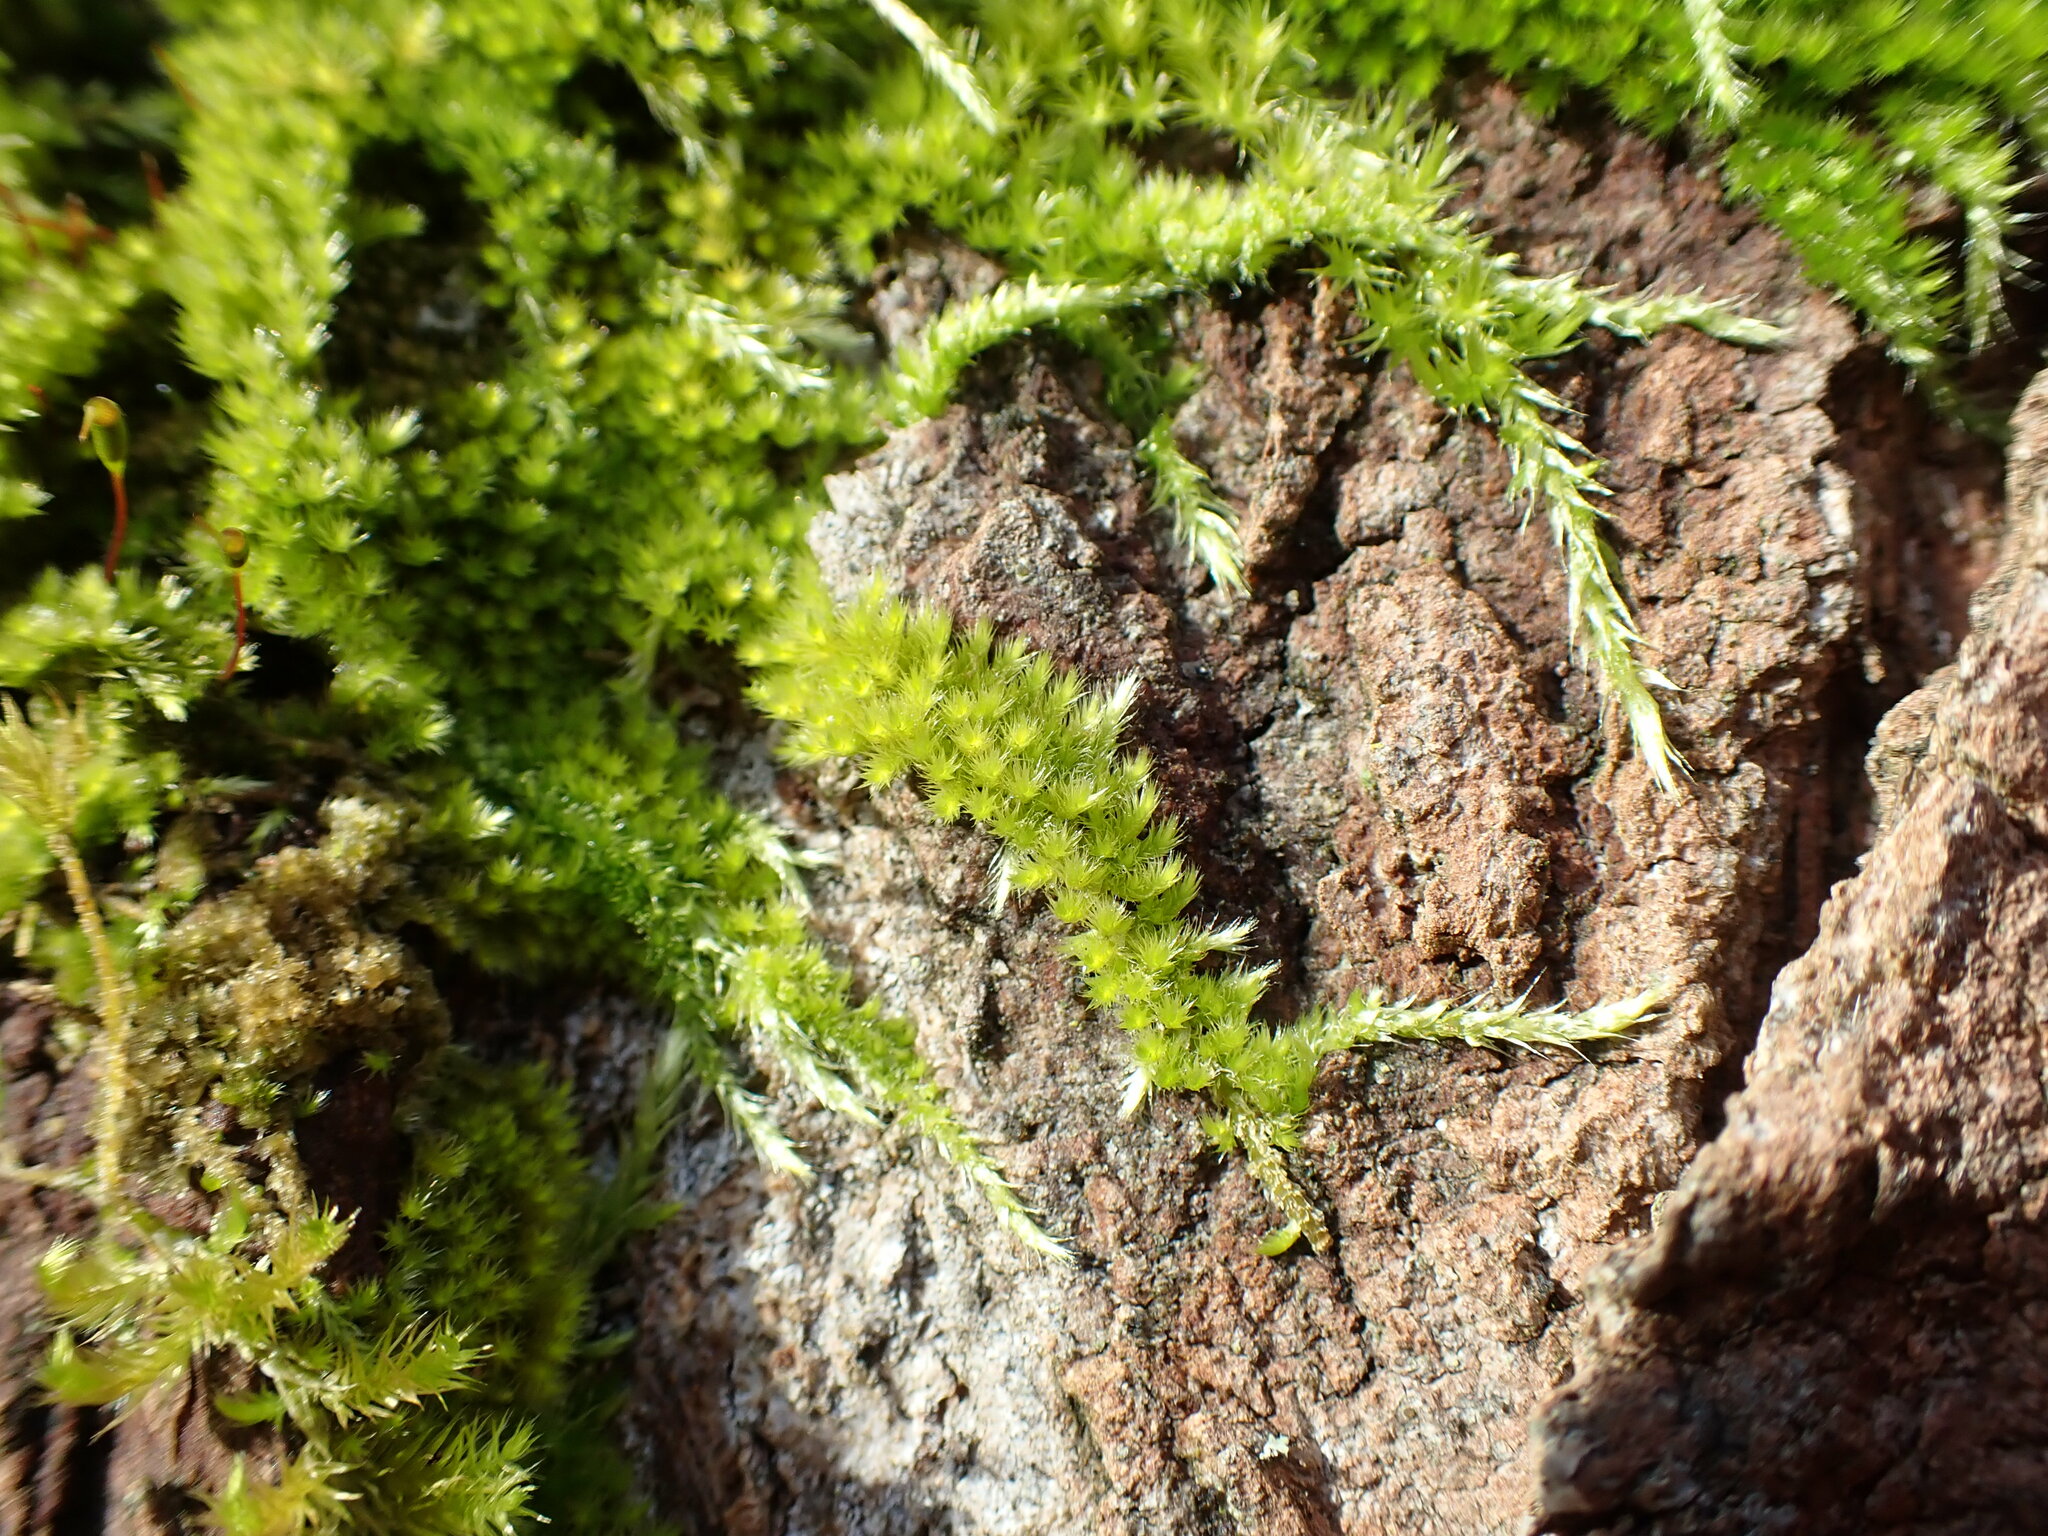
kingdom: Plantae
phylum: Bryophyta
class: Bryopsida
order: Hypnales
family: Brachytheciaceae
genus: Homalothecium
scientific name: Homalothecium nuttallii
